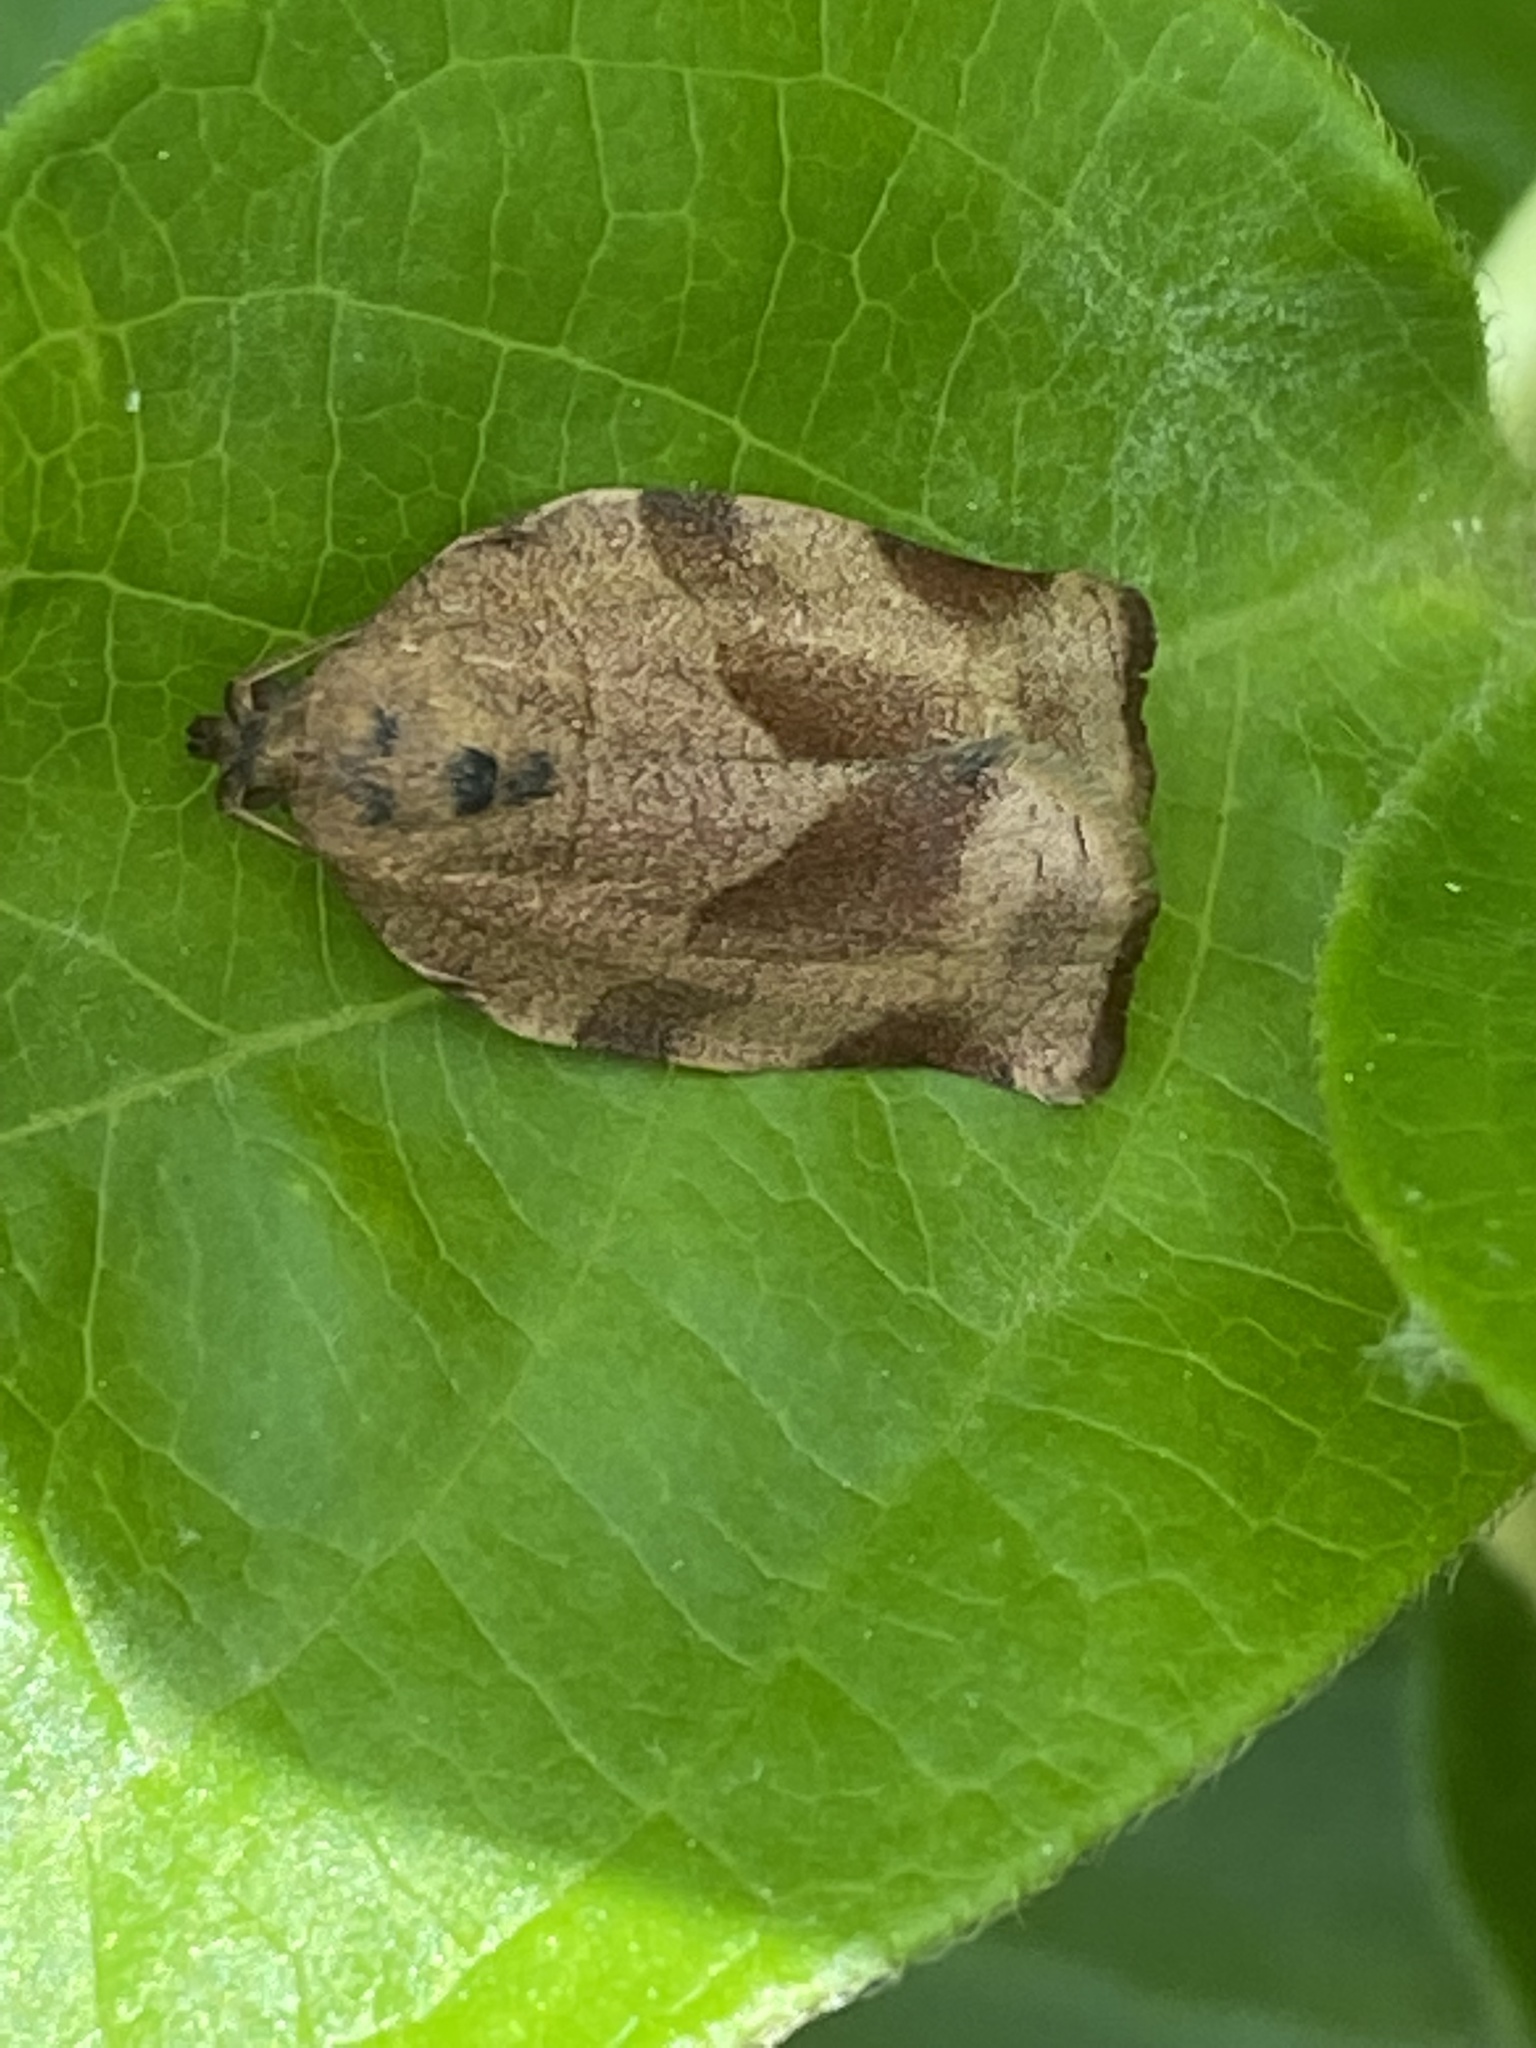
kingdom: Animalia
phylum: Arthropoda
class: Insecta
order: Lepidoptera
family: Tortricidae
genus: Choristoneura
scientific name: Choristoneura rosaceana
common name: Oblique-banded leafroller moth
